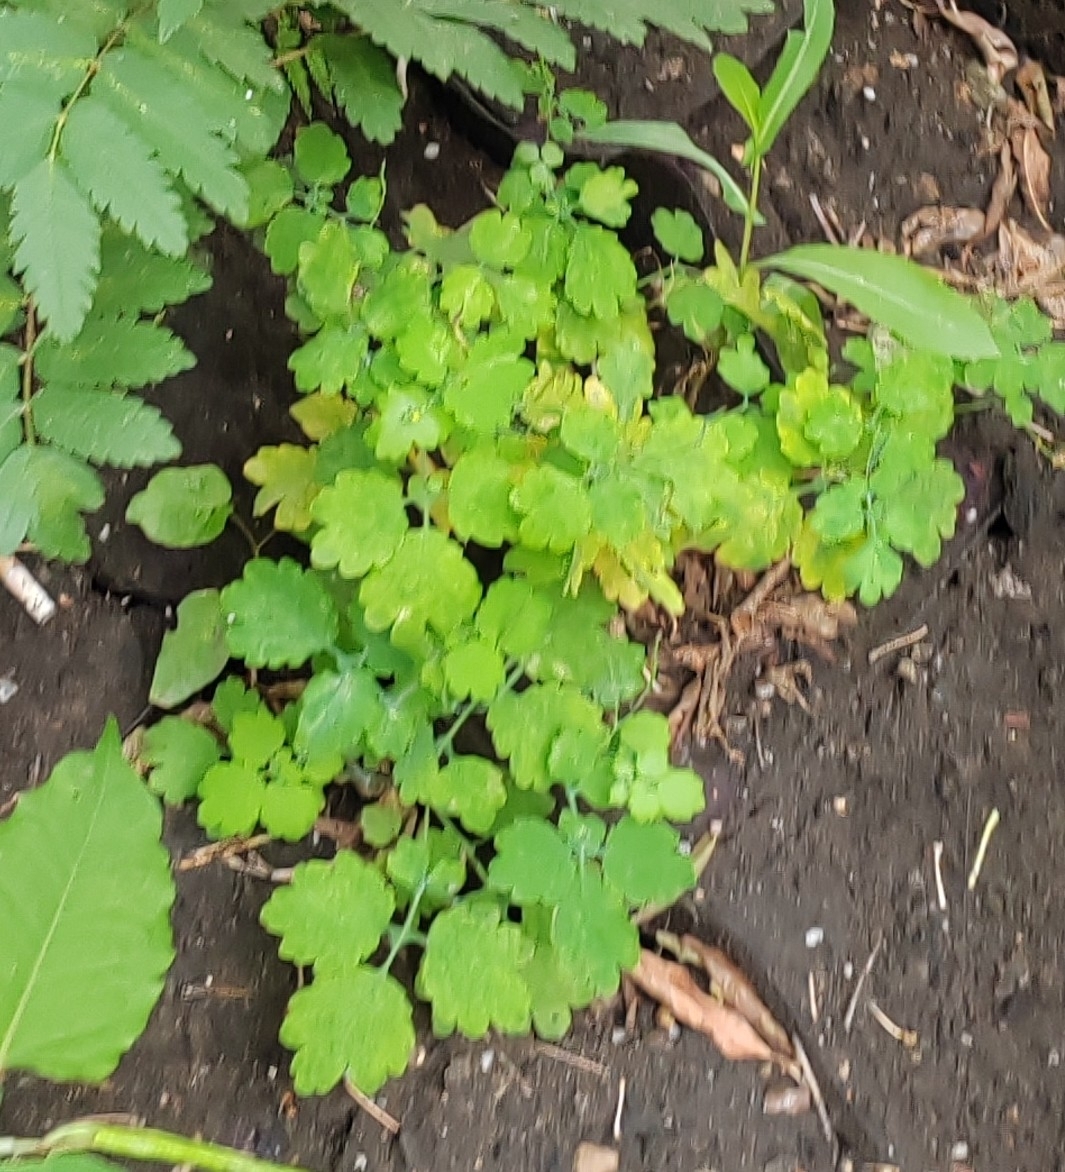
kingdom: Plantae
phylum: Tracheophyta
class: Magnoliopsida
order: Ranunculales
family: Papaveraceae
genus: Chelidonium
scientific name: Chelidonium majus
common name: Greater celandine
